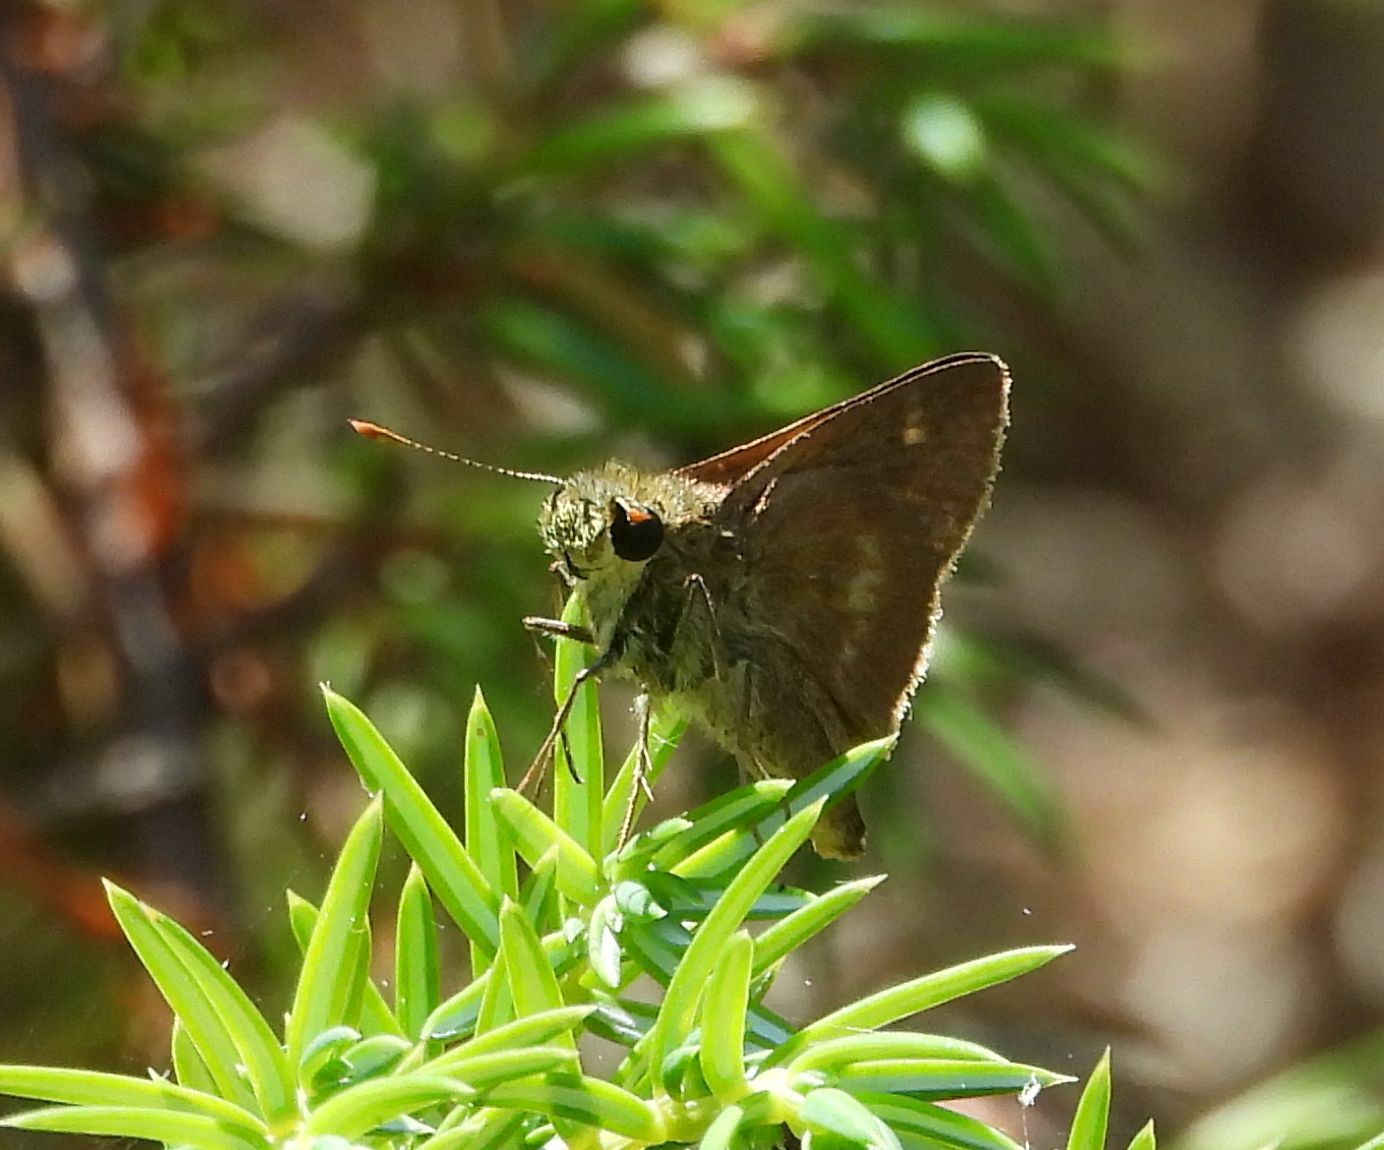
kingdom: Animalia
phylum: Arthropoda
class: Insecta
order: Lepidoptera
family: Hesperiidae
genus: Polites
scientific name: Polites egeremet
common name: Northern broken-dash
